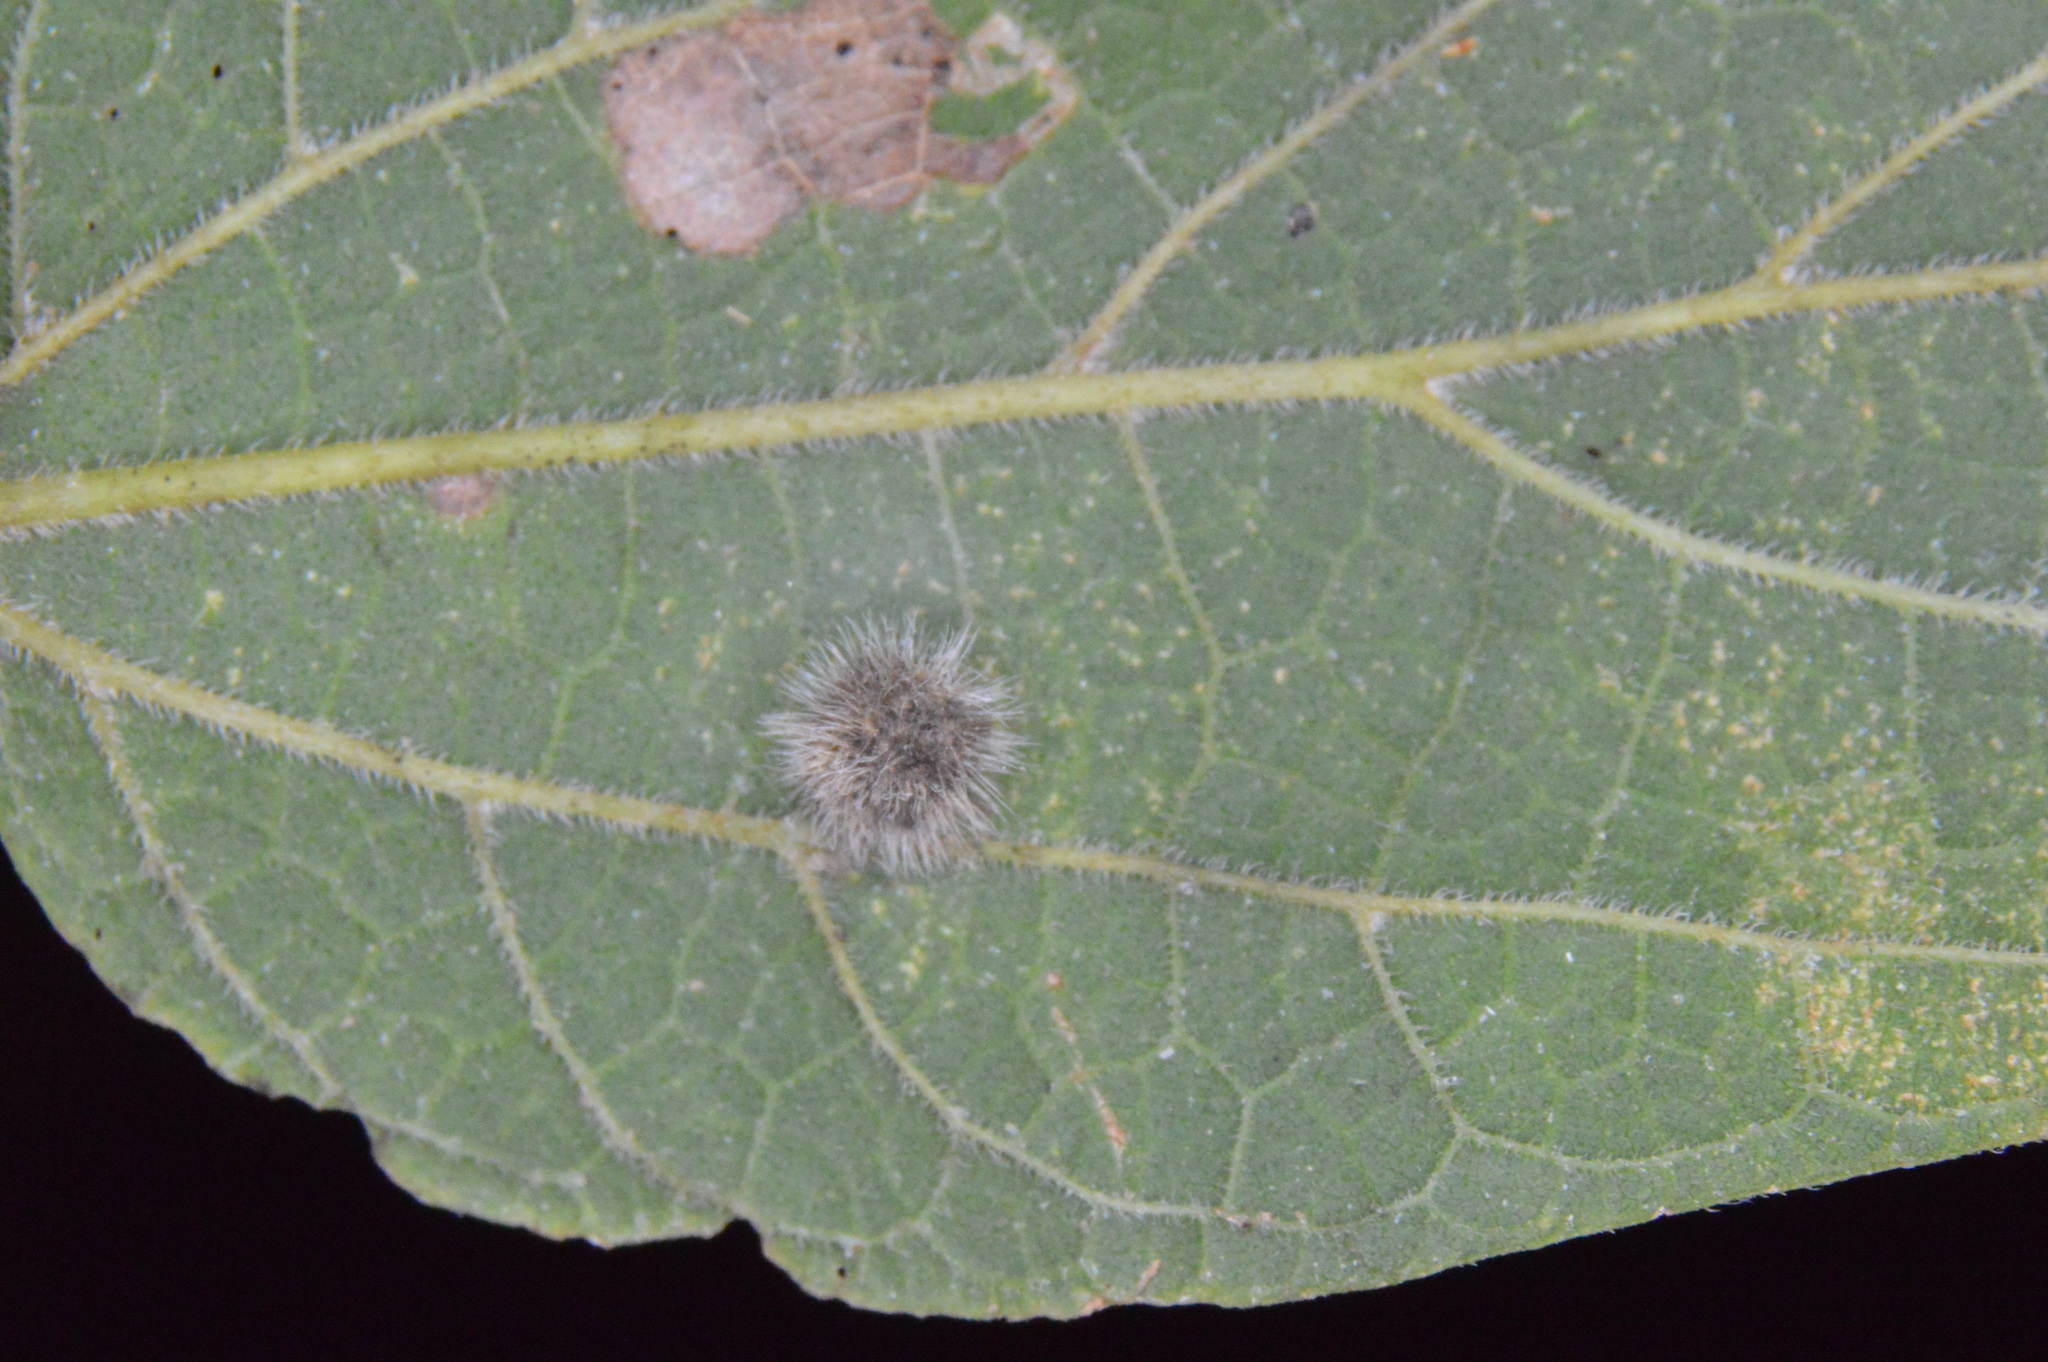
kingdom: Animalia
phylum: Arthropoda
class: Insecta
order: Diptera
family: Cecidomyiidae
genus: Celticecis
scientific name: Celticecis pubescens
